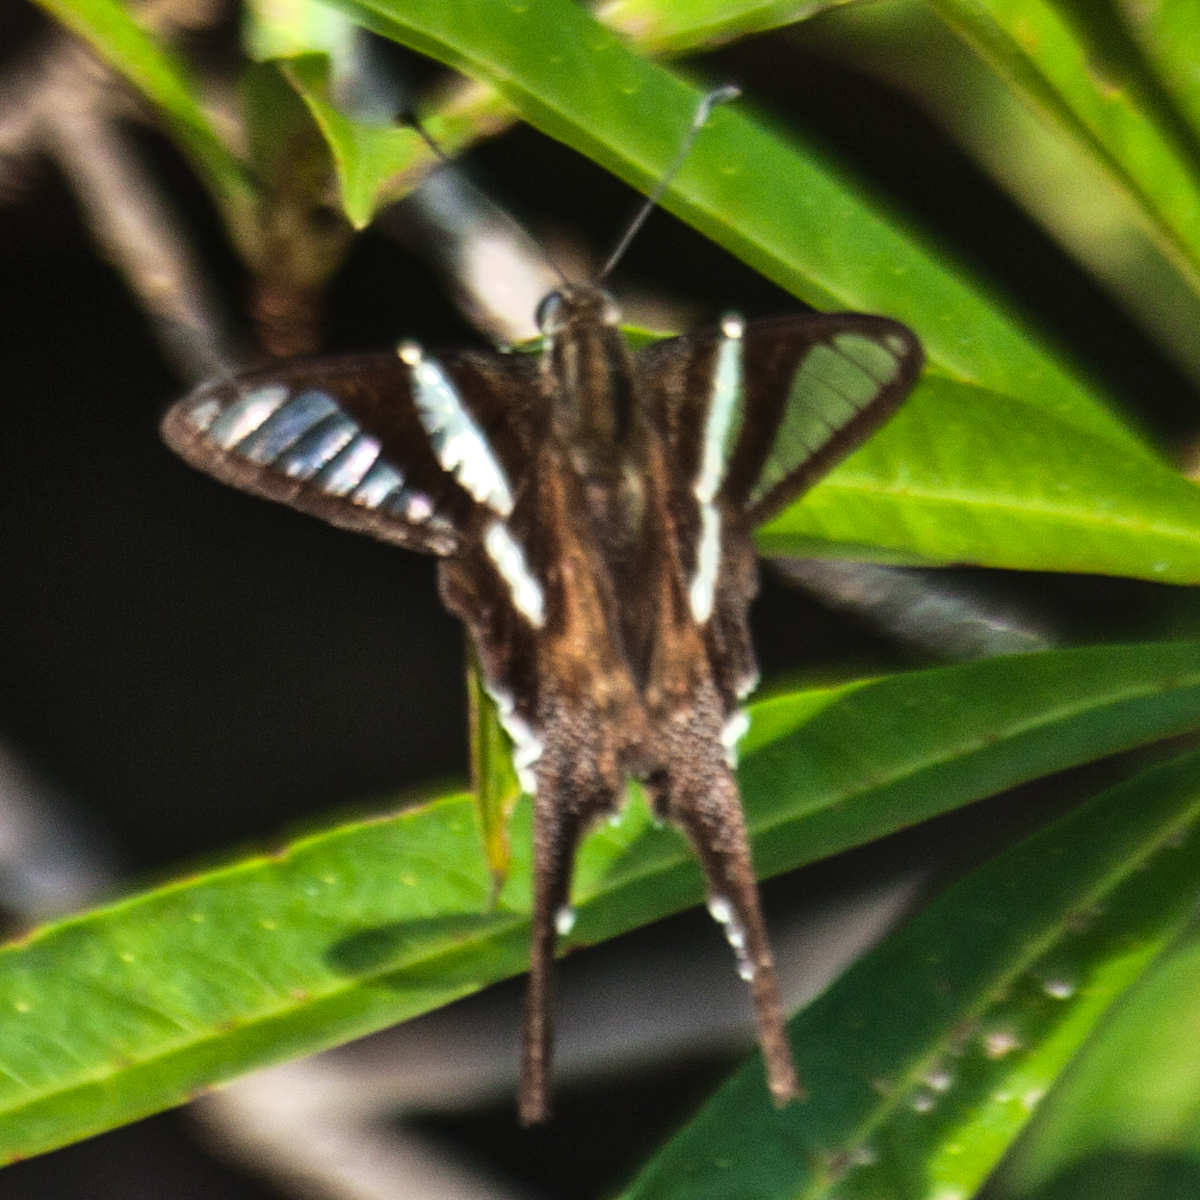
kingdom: Animalia
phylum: Arthropoda
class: Insecta
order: Lepidoptera
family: Papilionidae
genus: Lamproptera
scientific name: Lamproptera curius
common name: White dragontail
